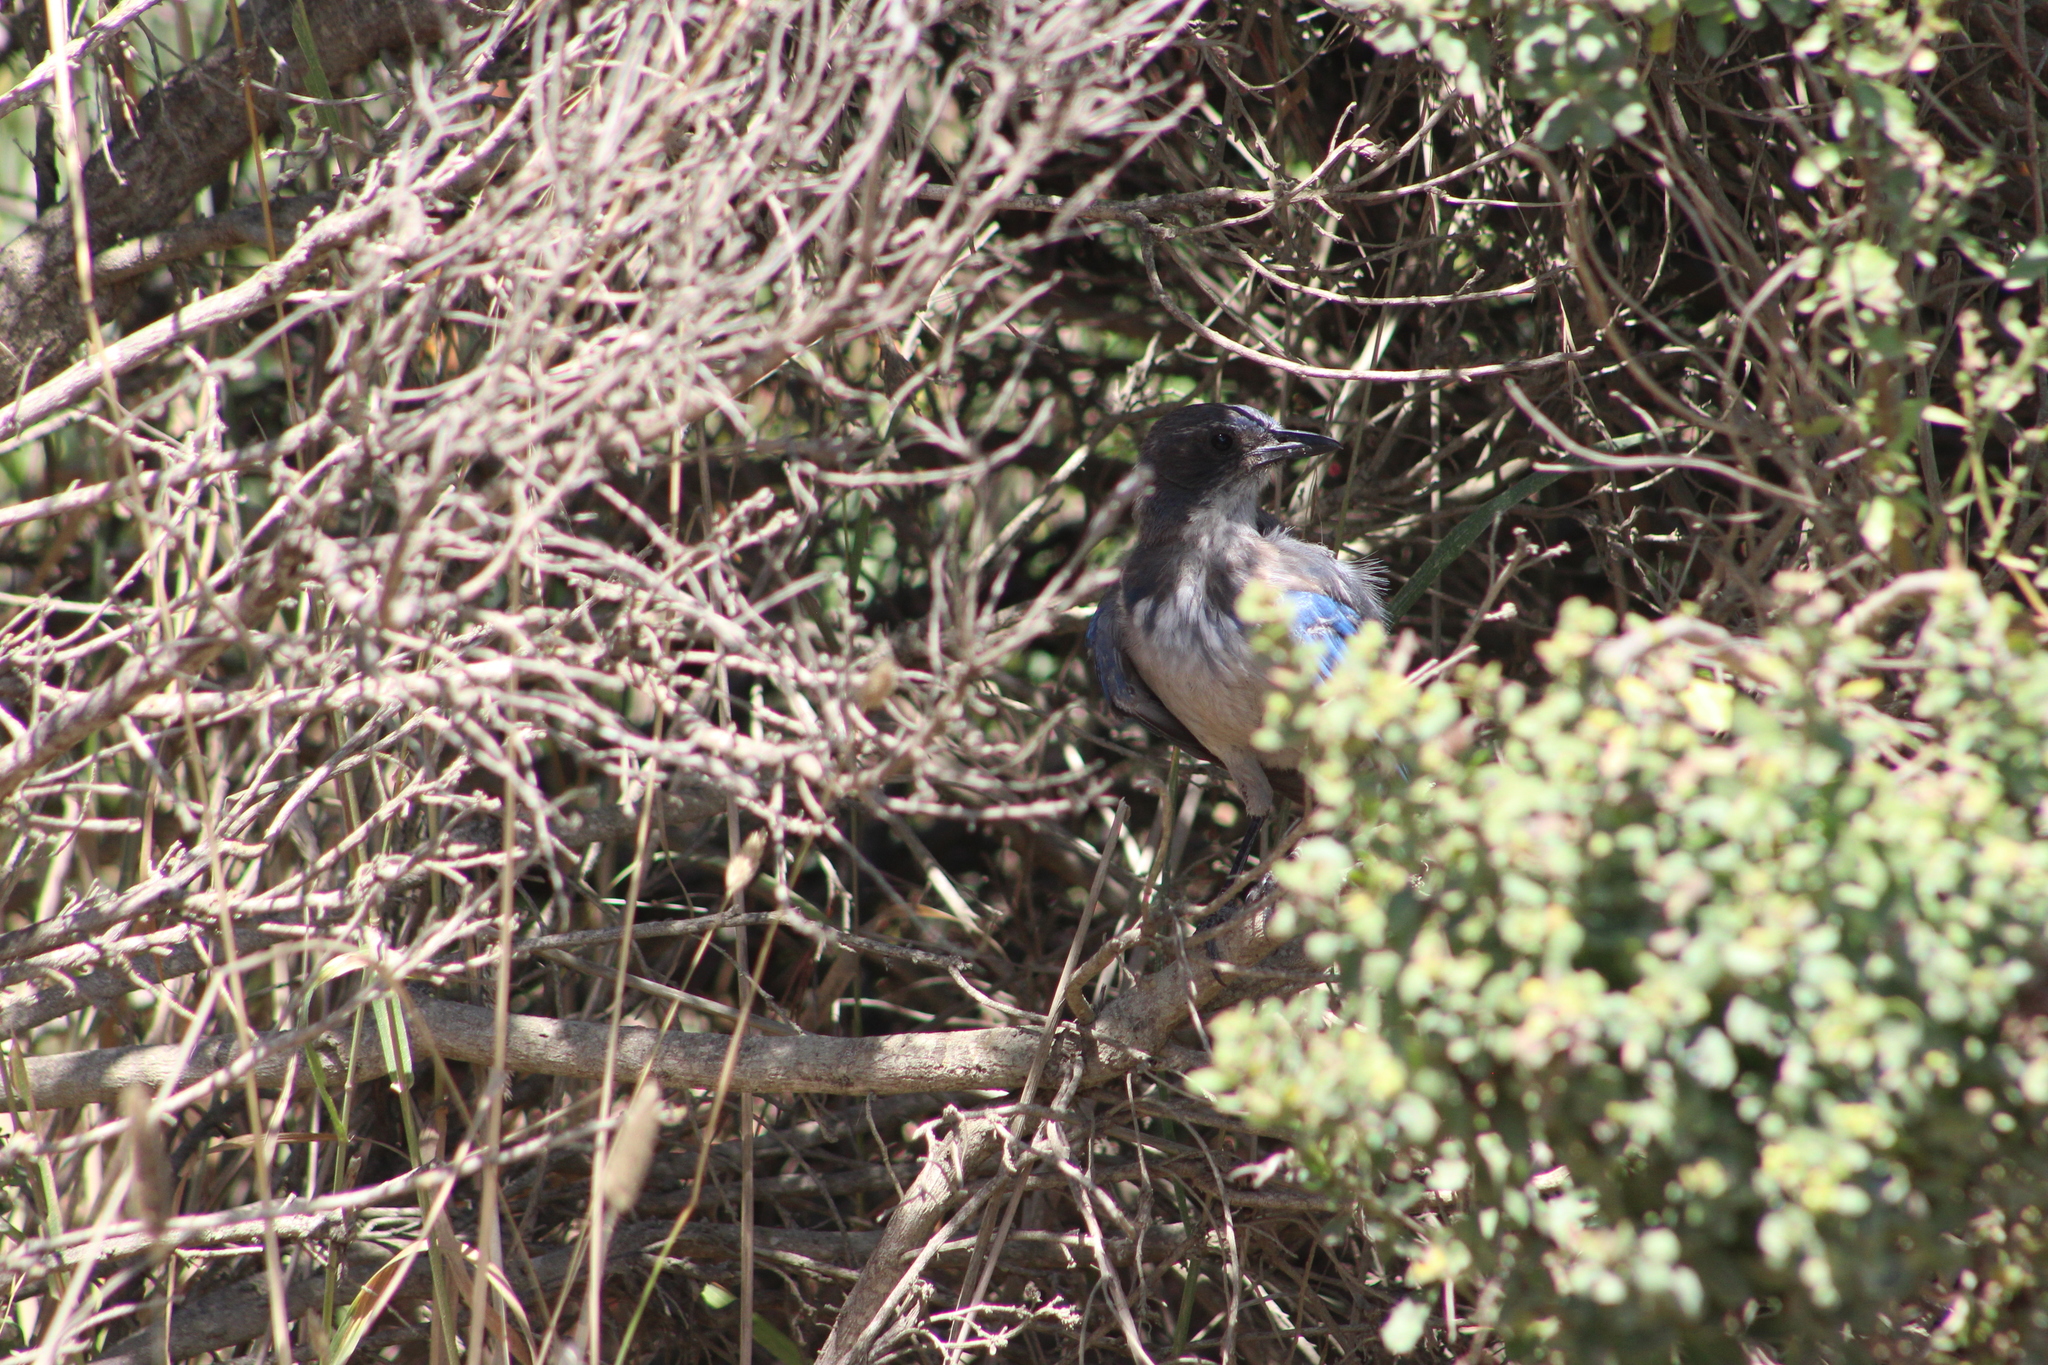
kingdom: Animalia
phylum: Chordata
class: Aves
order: Passeriformes
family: Corvidae
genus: Aphelocoma
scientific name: Aphelocoma californica
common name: California scrub-jay
